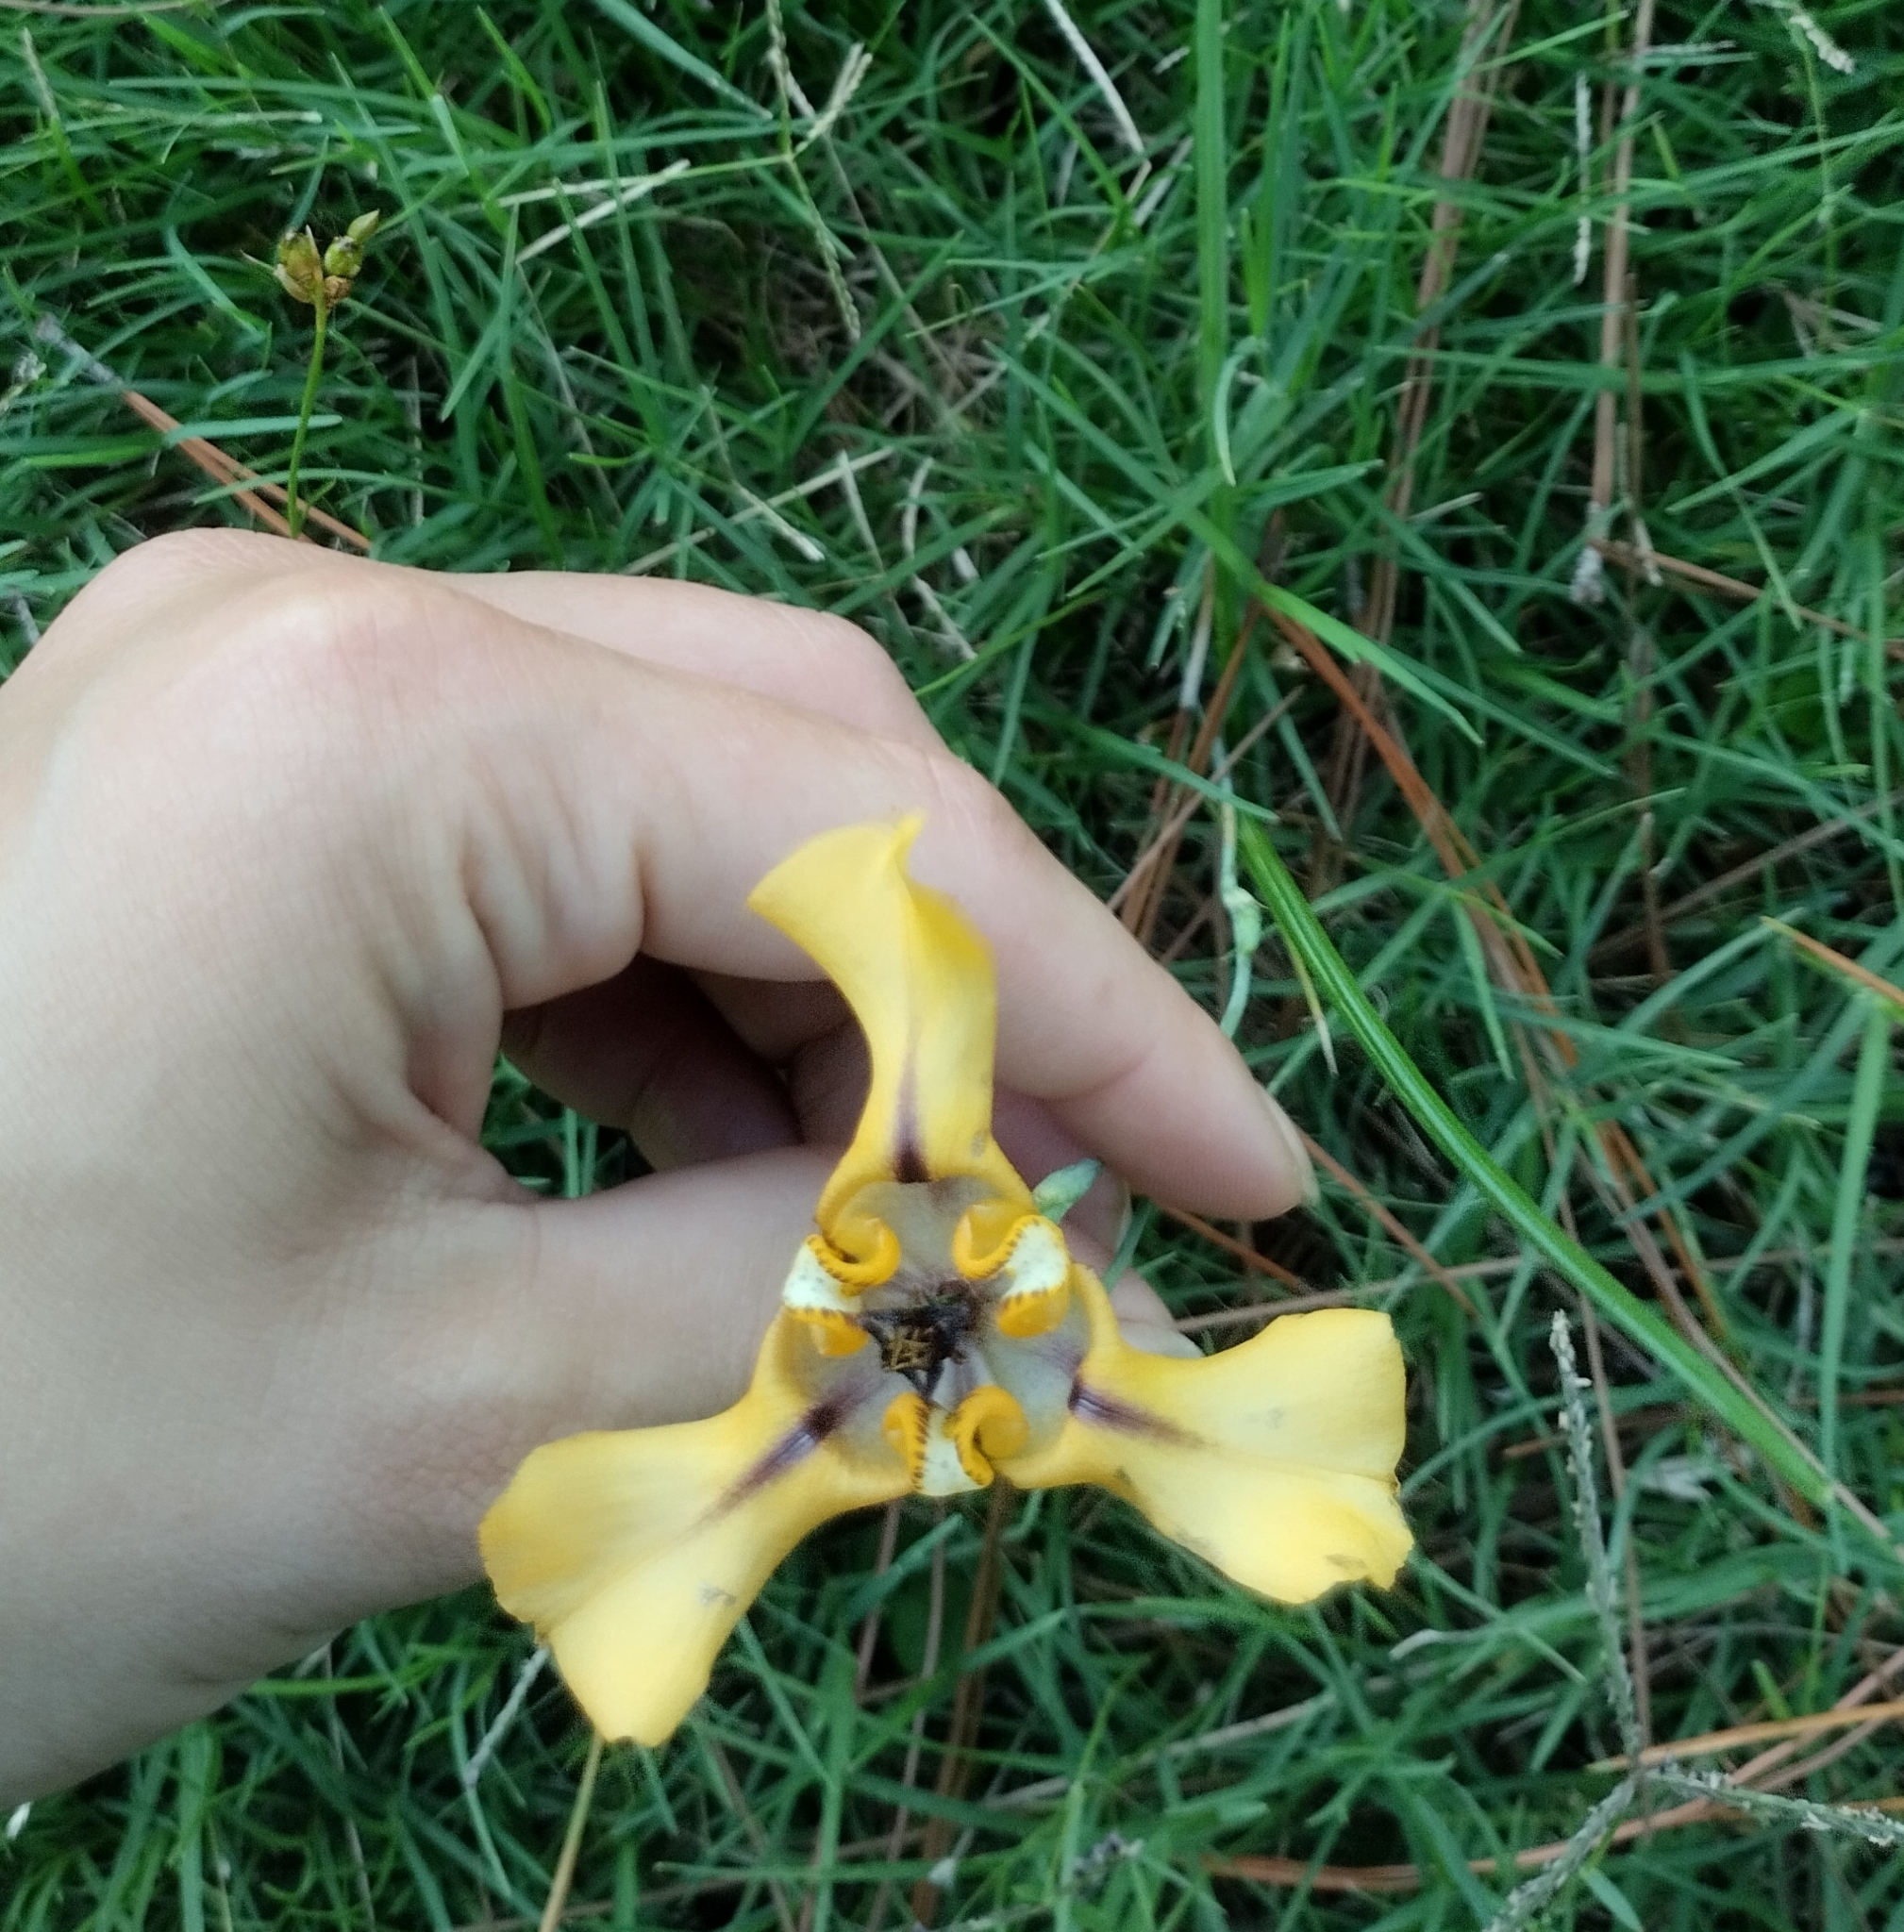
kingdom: Plantae
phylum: Tracheophyta
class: Liliopsida
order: Asparagales
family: Iridaceae
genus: Cypella
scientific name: Cypella herbertii
